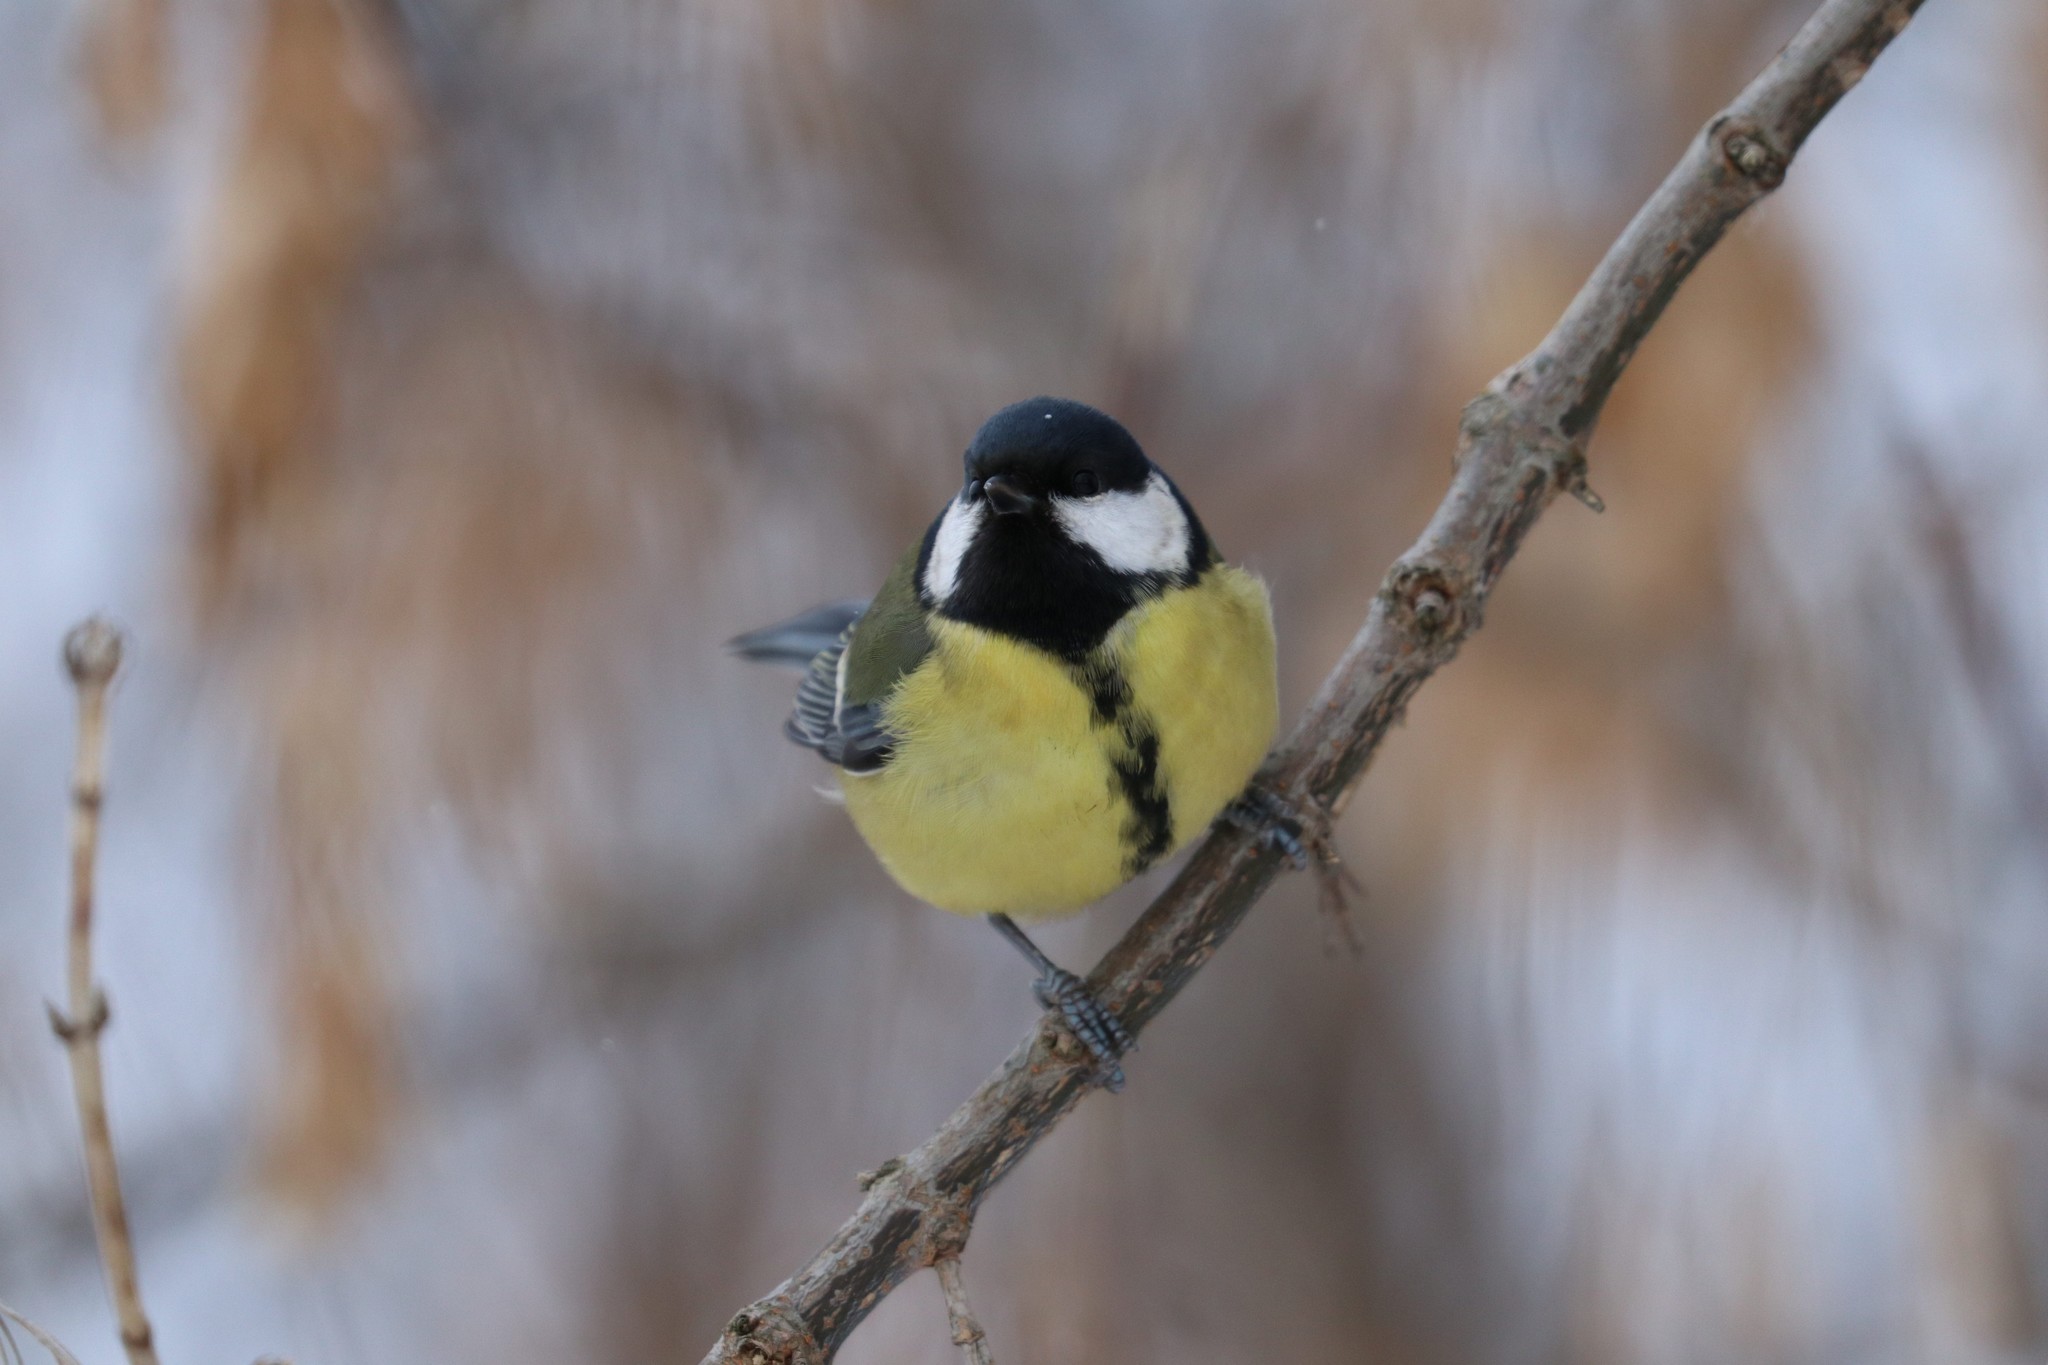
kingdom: Animalia
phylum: Chordata
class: Aves
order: Passeriformes
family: Paridae
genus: Parus
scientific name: Parus major
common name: Great tit
